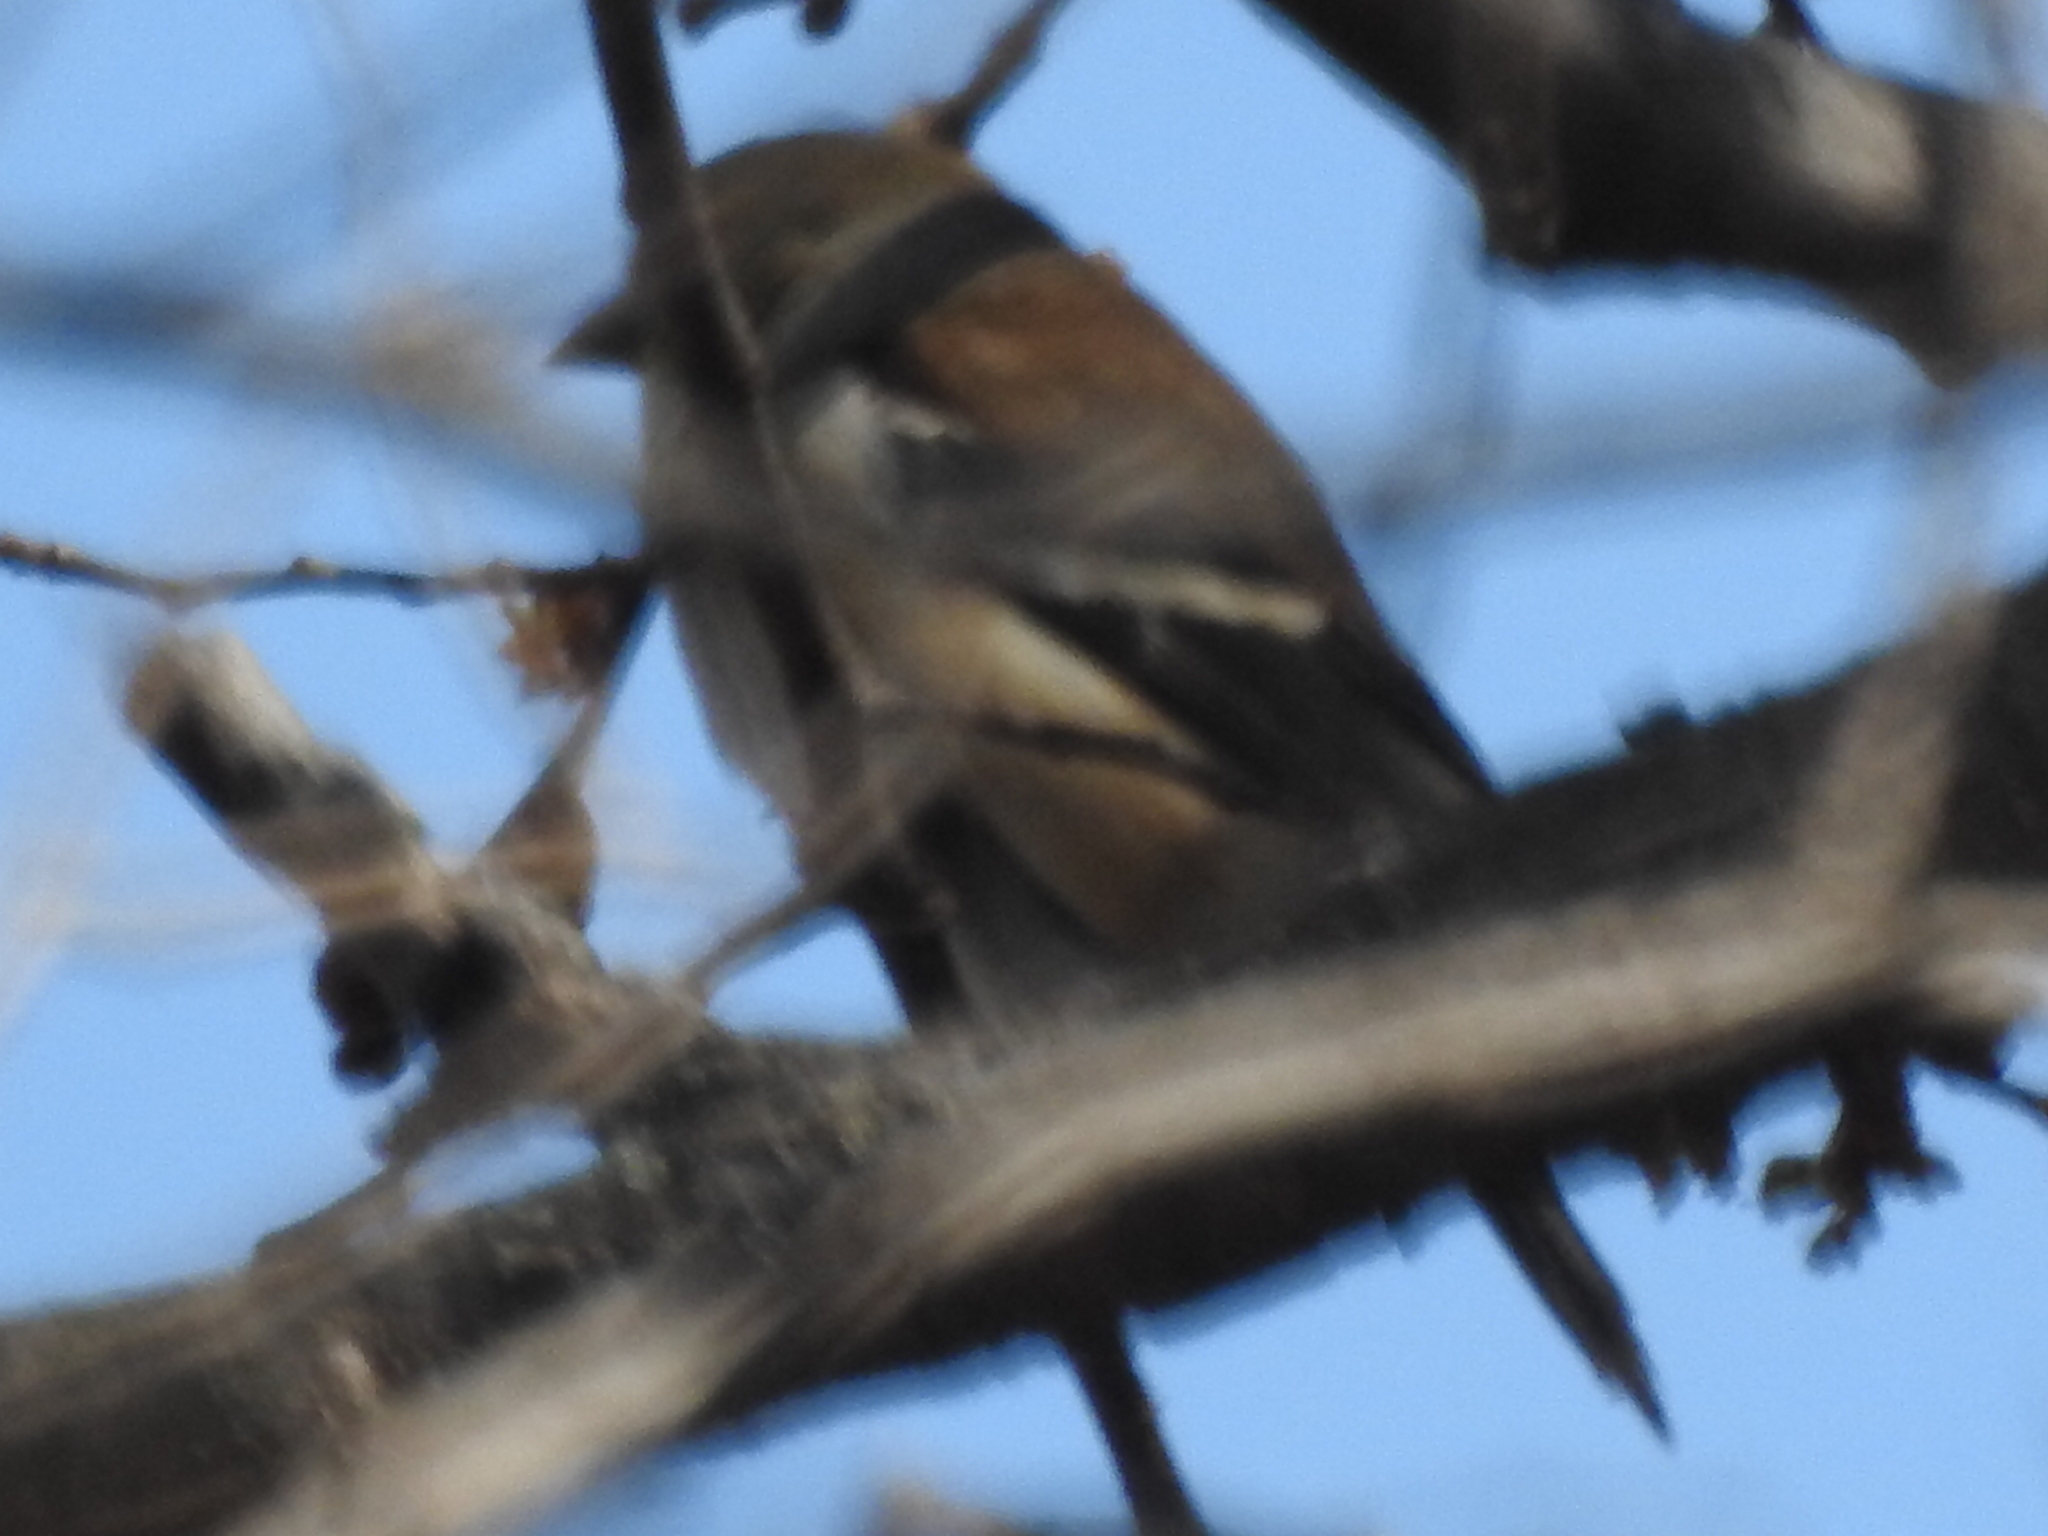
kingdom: Animalia
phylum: Chordata
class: Aves
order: Passeriformes
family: Fringillidae
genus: Spinus
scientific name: Spinus tristis
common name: American goldfinch
